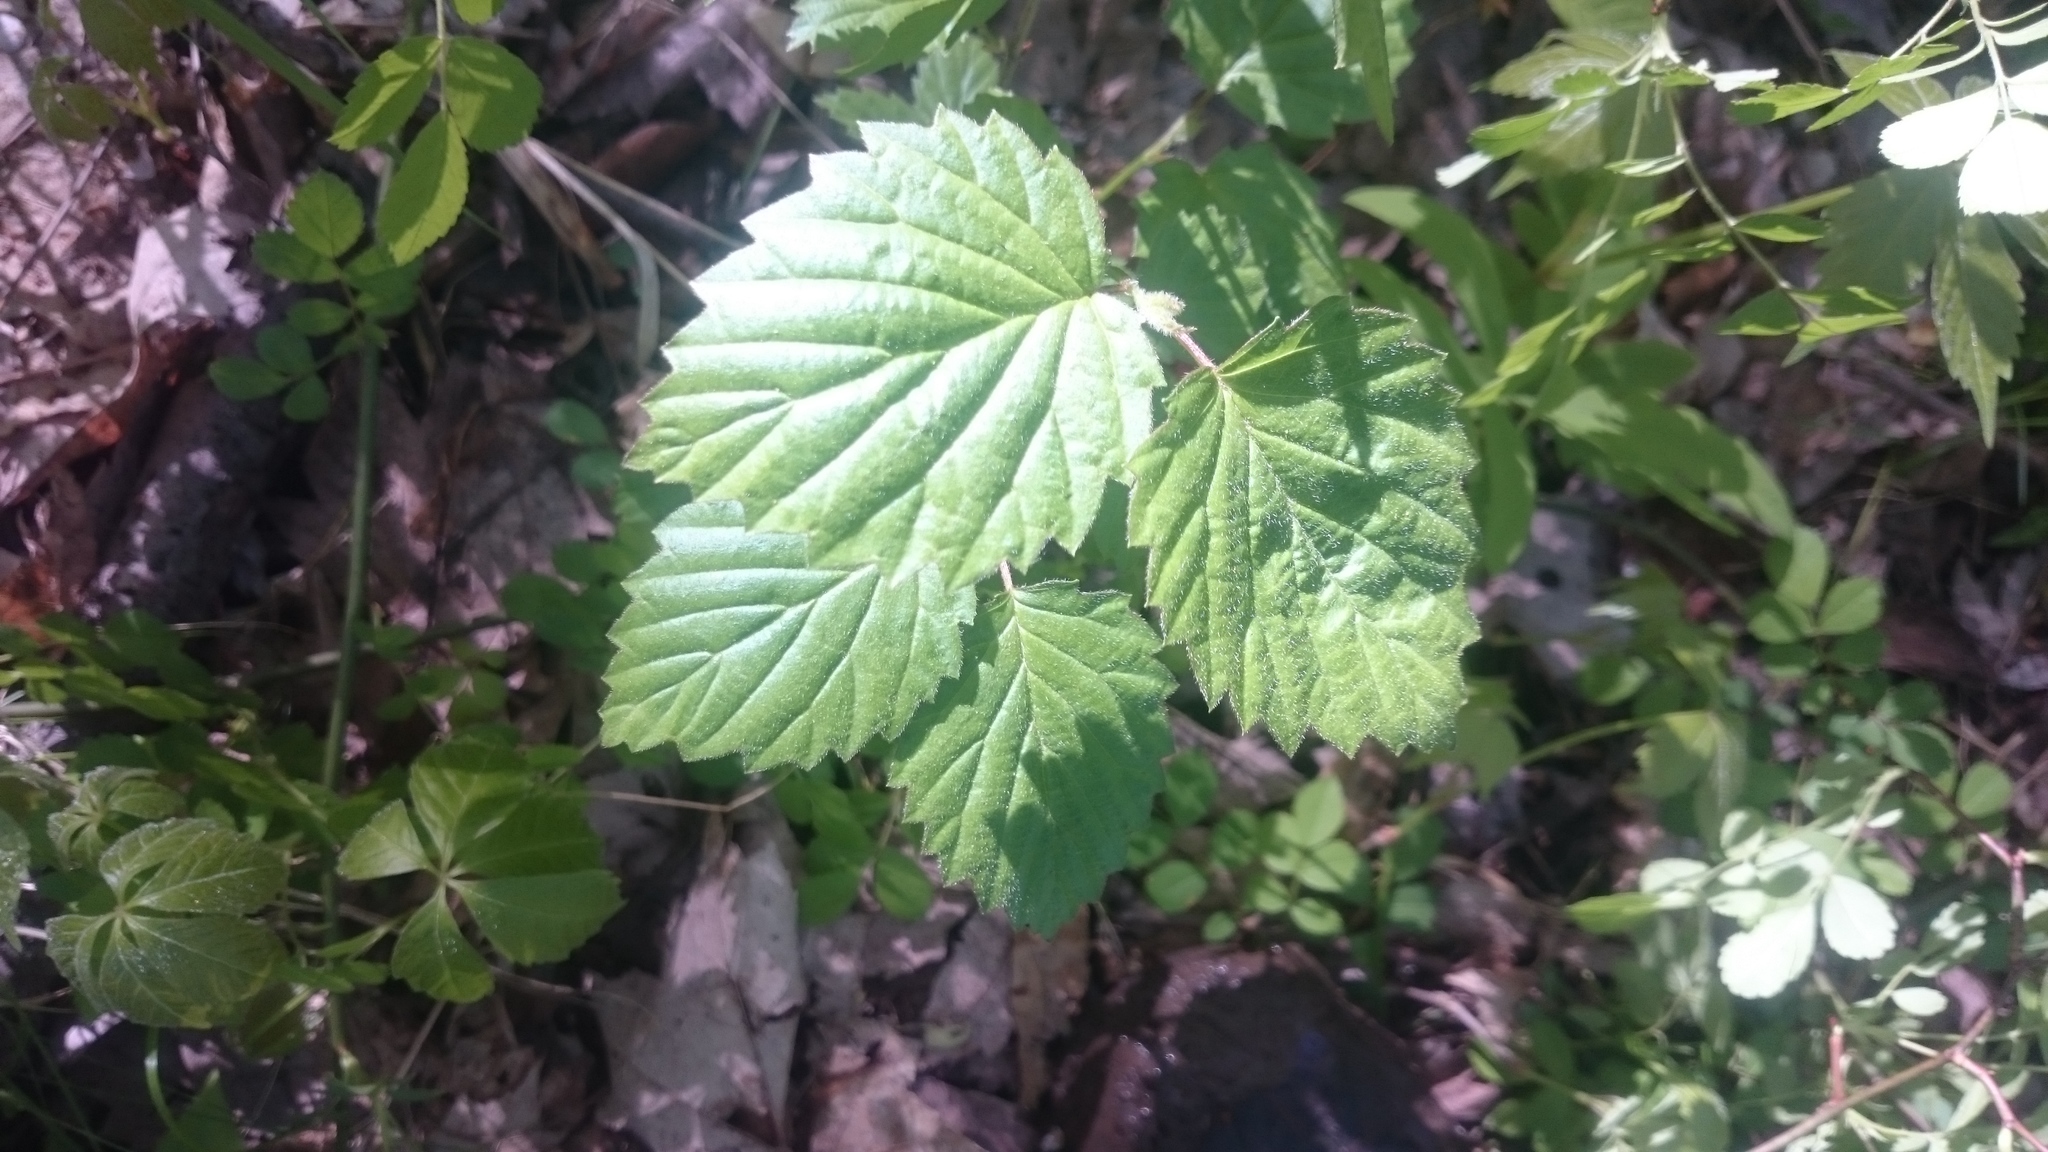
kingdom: Plantae
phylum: Tracheophyta
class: Magnoliopsida
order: Dipsacales
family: Viburnaceae
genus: Viburnum
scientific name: Viburnum dentatum
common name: Arrow-wood
